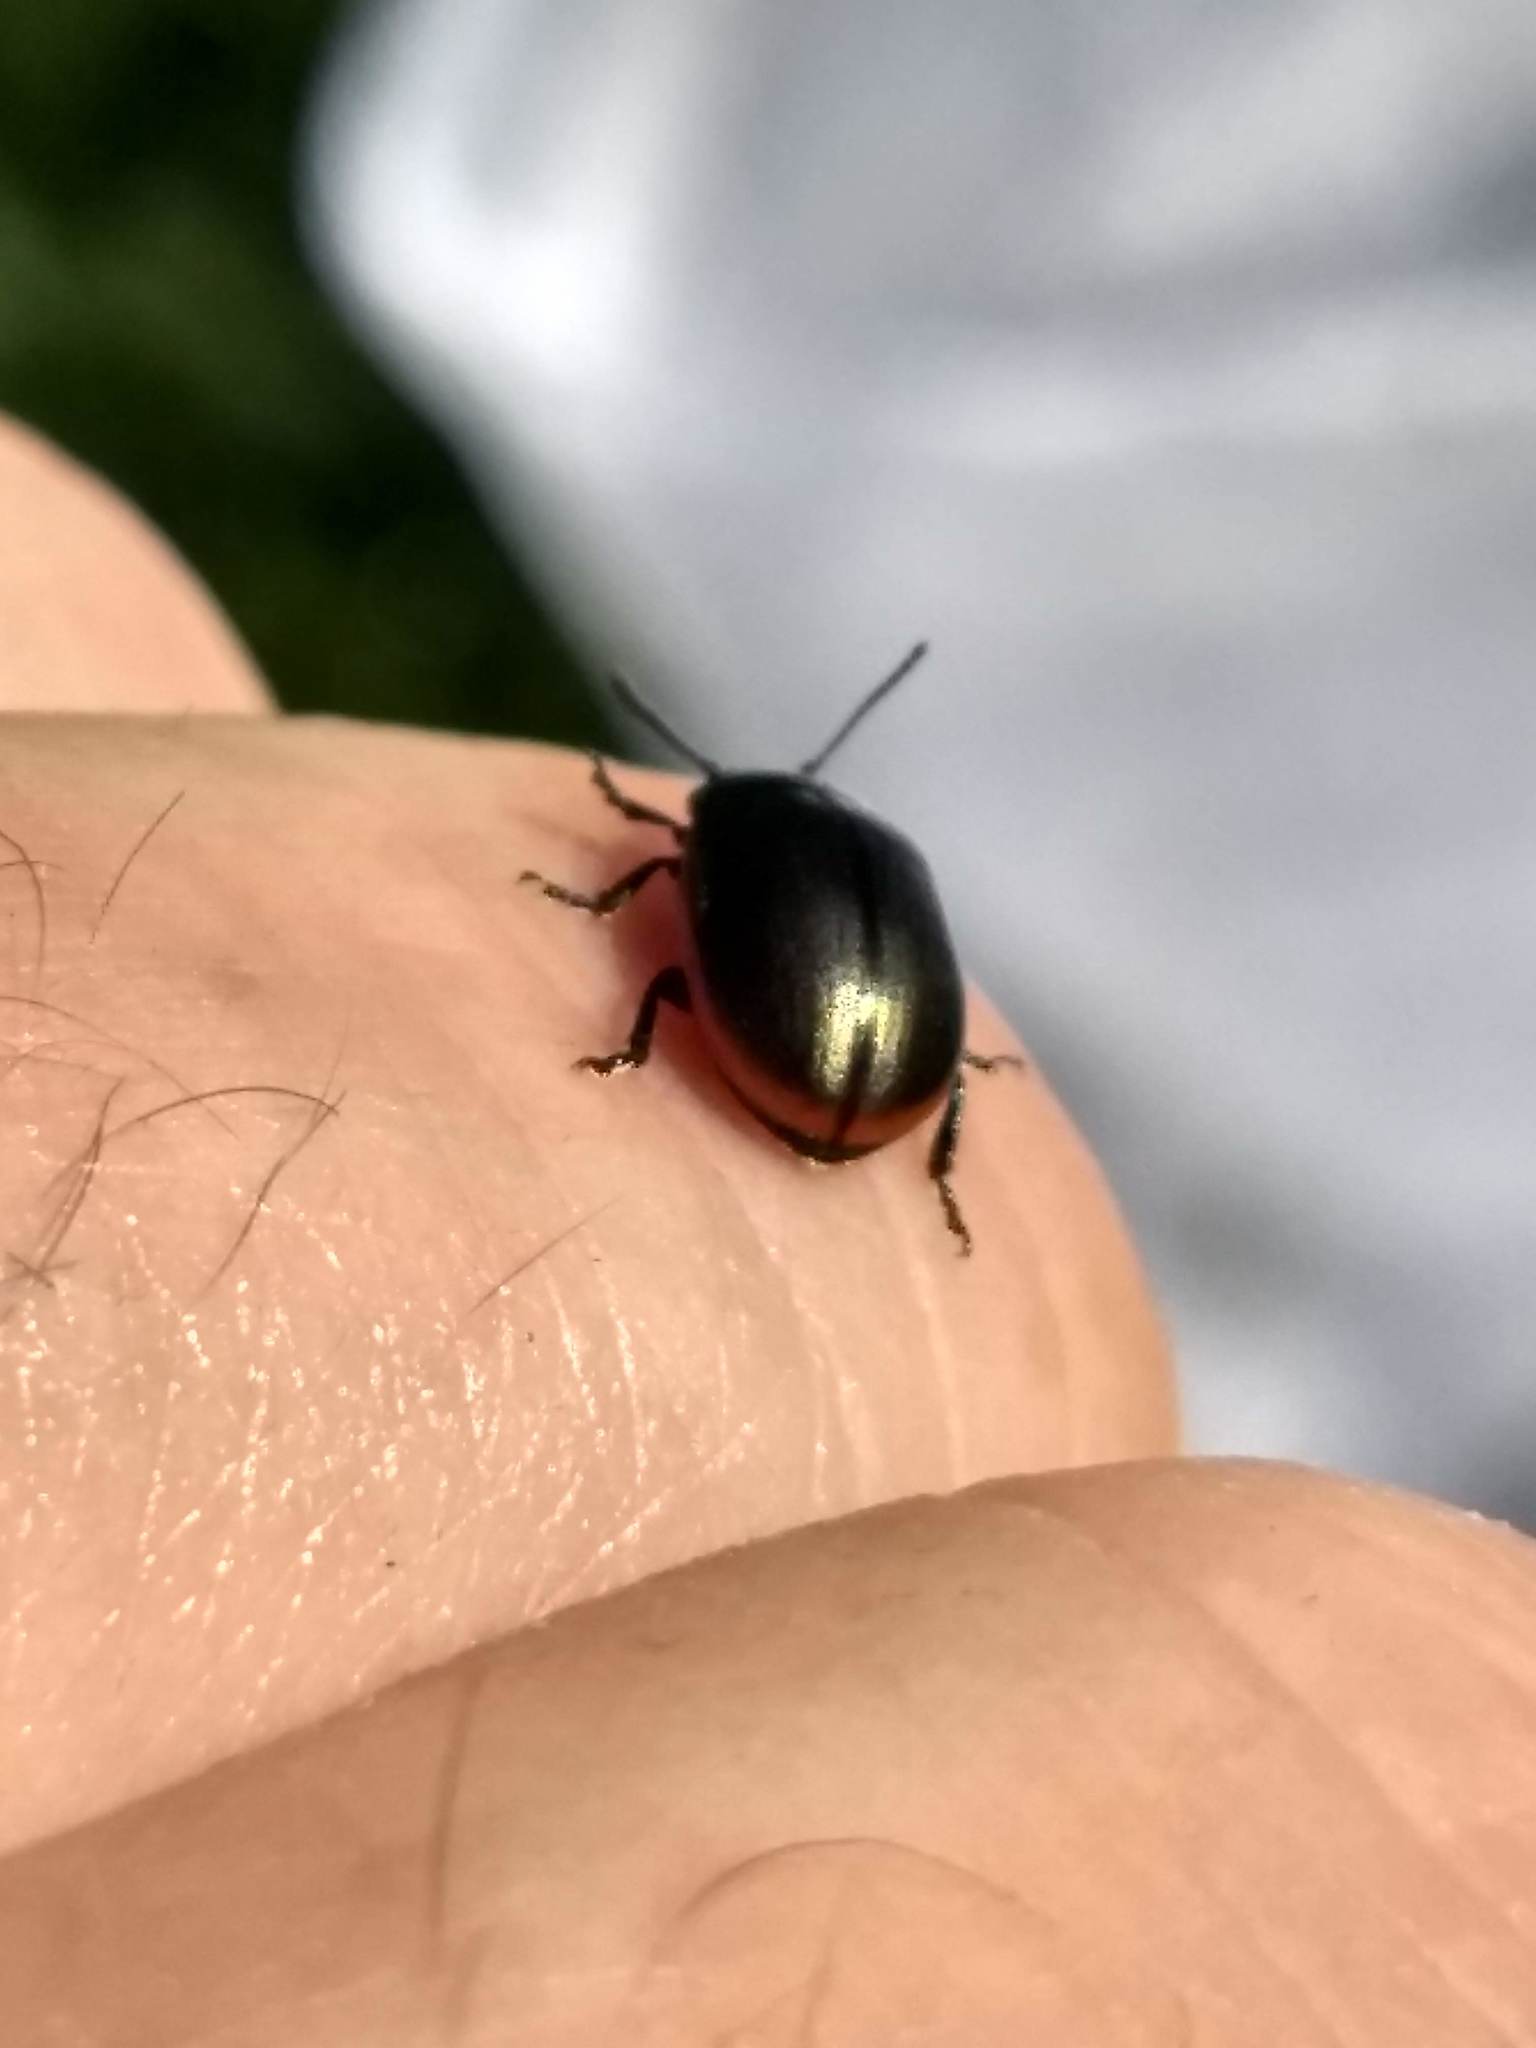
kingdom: Animalia
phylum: Arthropoda
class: Insecta
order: Coleoptera
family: Chrysomelidae
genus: Chrysolina
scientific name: Chrysolina marginata
